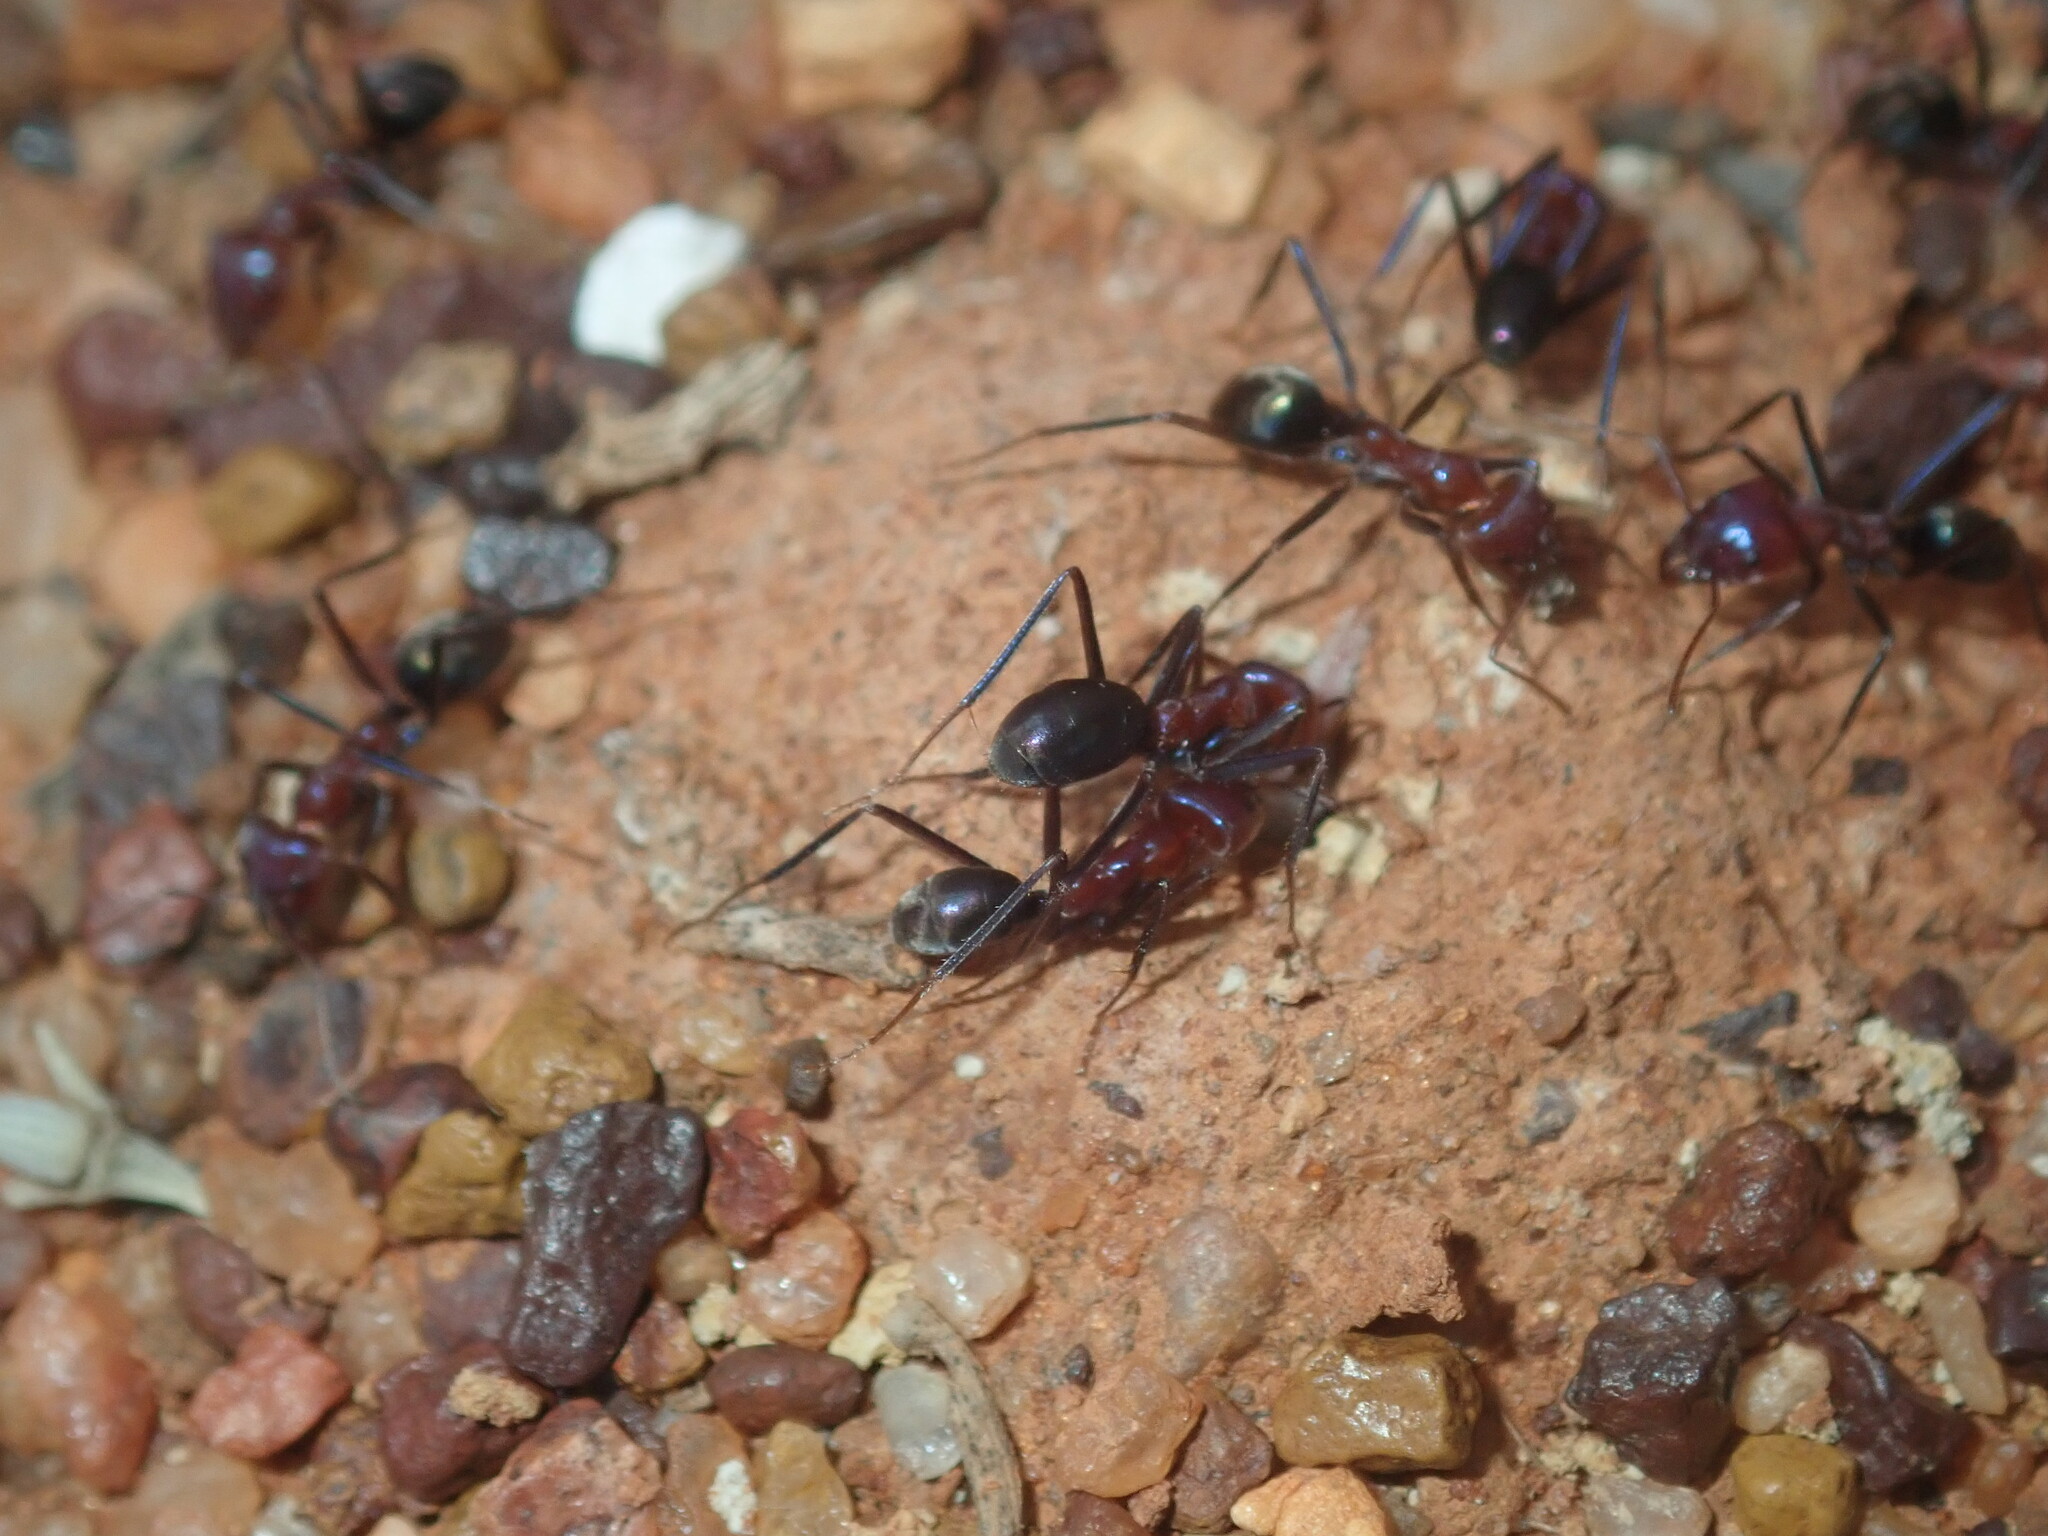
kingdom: Animalia
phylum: Arthropoda
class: Insecta
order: Hymenoptera
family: Formicidae
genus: Iridomyrmex
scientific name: Iridomyrmex purpureus
